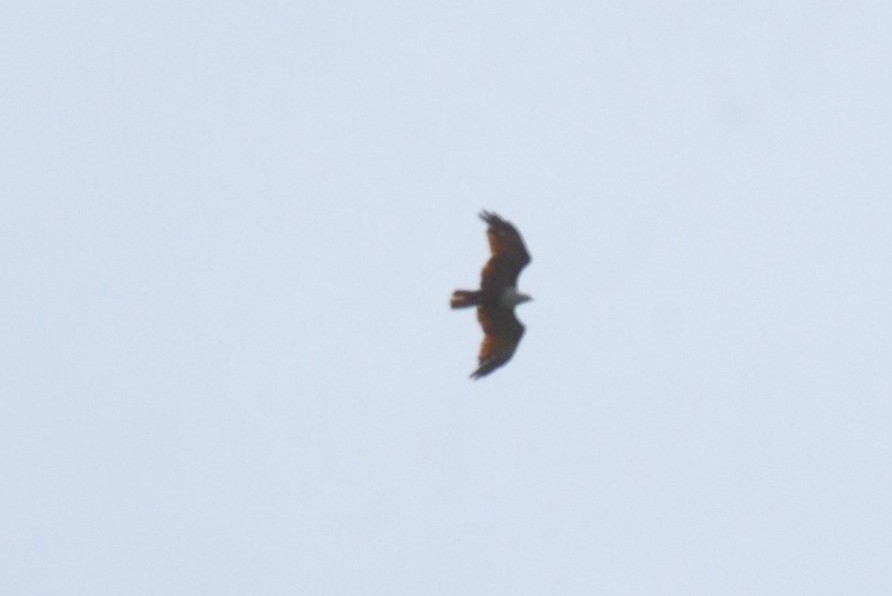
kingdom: Animalia
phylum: Chordata
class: Aves
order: Accipitriformes
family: Accipitridae
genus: Haliastur
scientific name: Haliastur indus
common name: Brahminy kite
